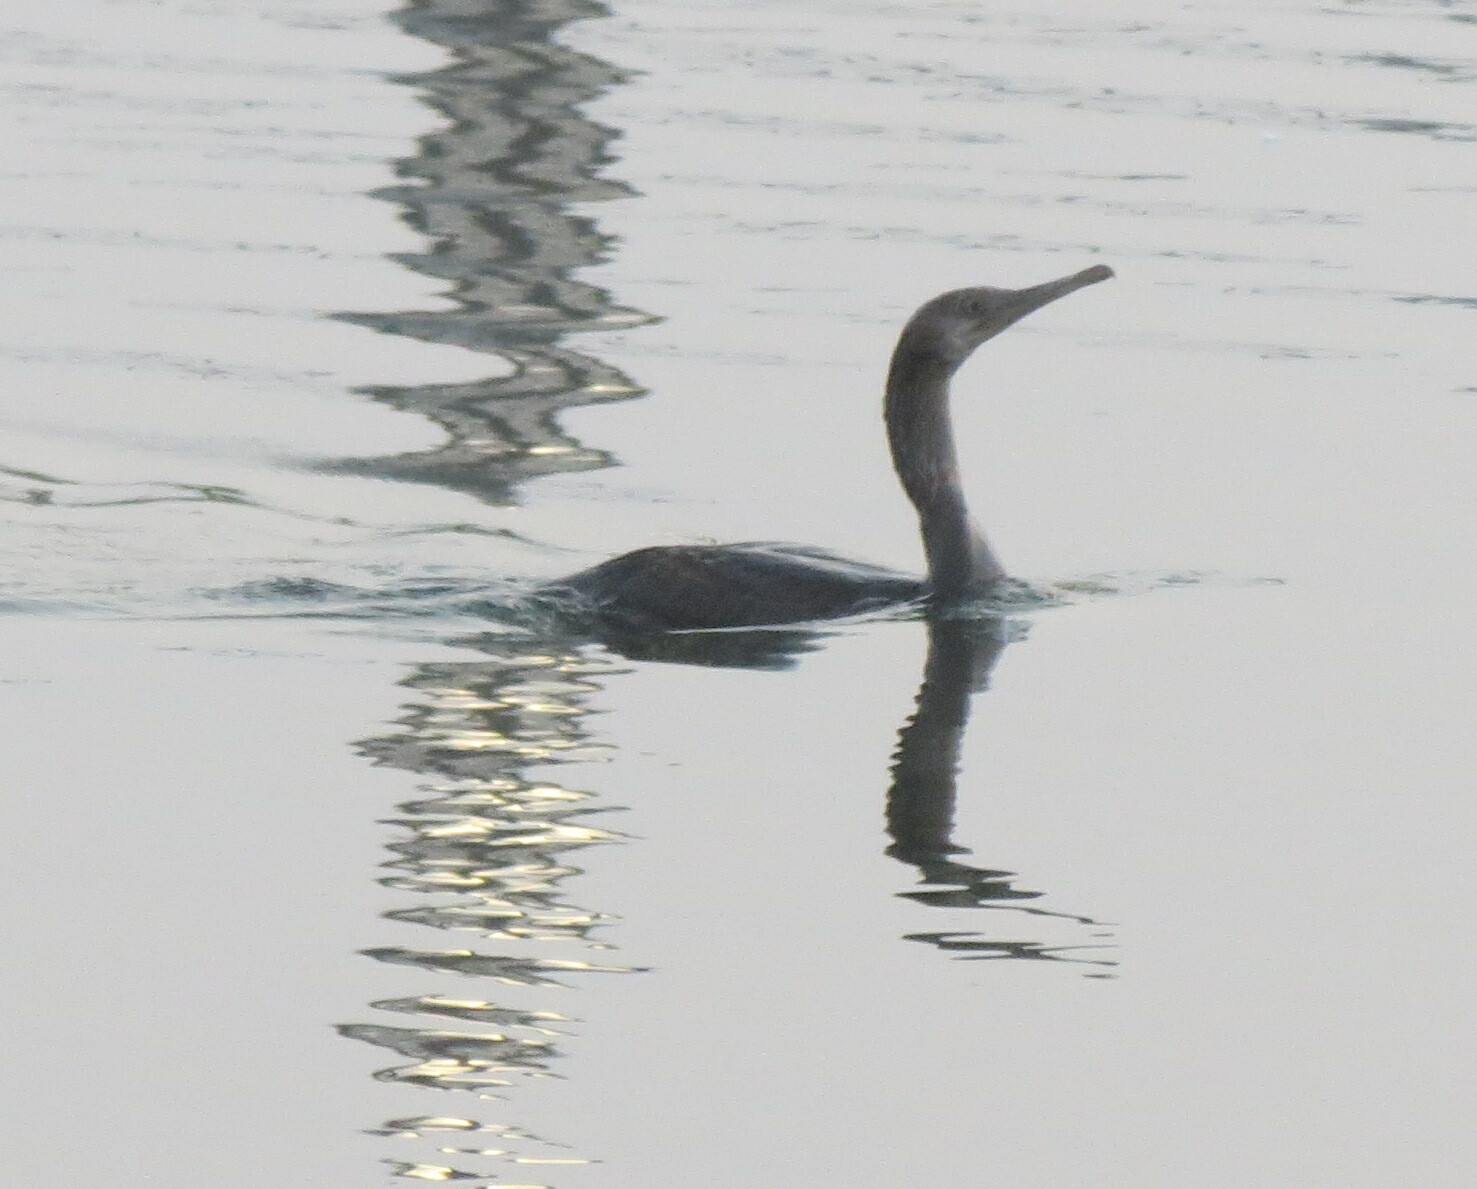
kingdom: Animalia
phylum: Chordata
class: Aves
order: Suliformes
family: Phalacrocoracidae
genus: Phalacrocorax
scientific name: Phalacrocorax nigrogularis
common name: Socotra cormorant
